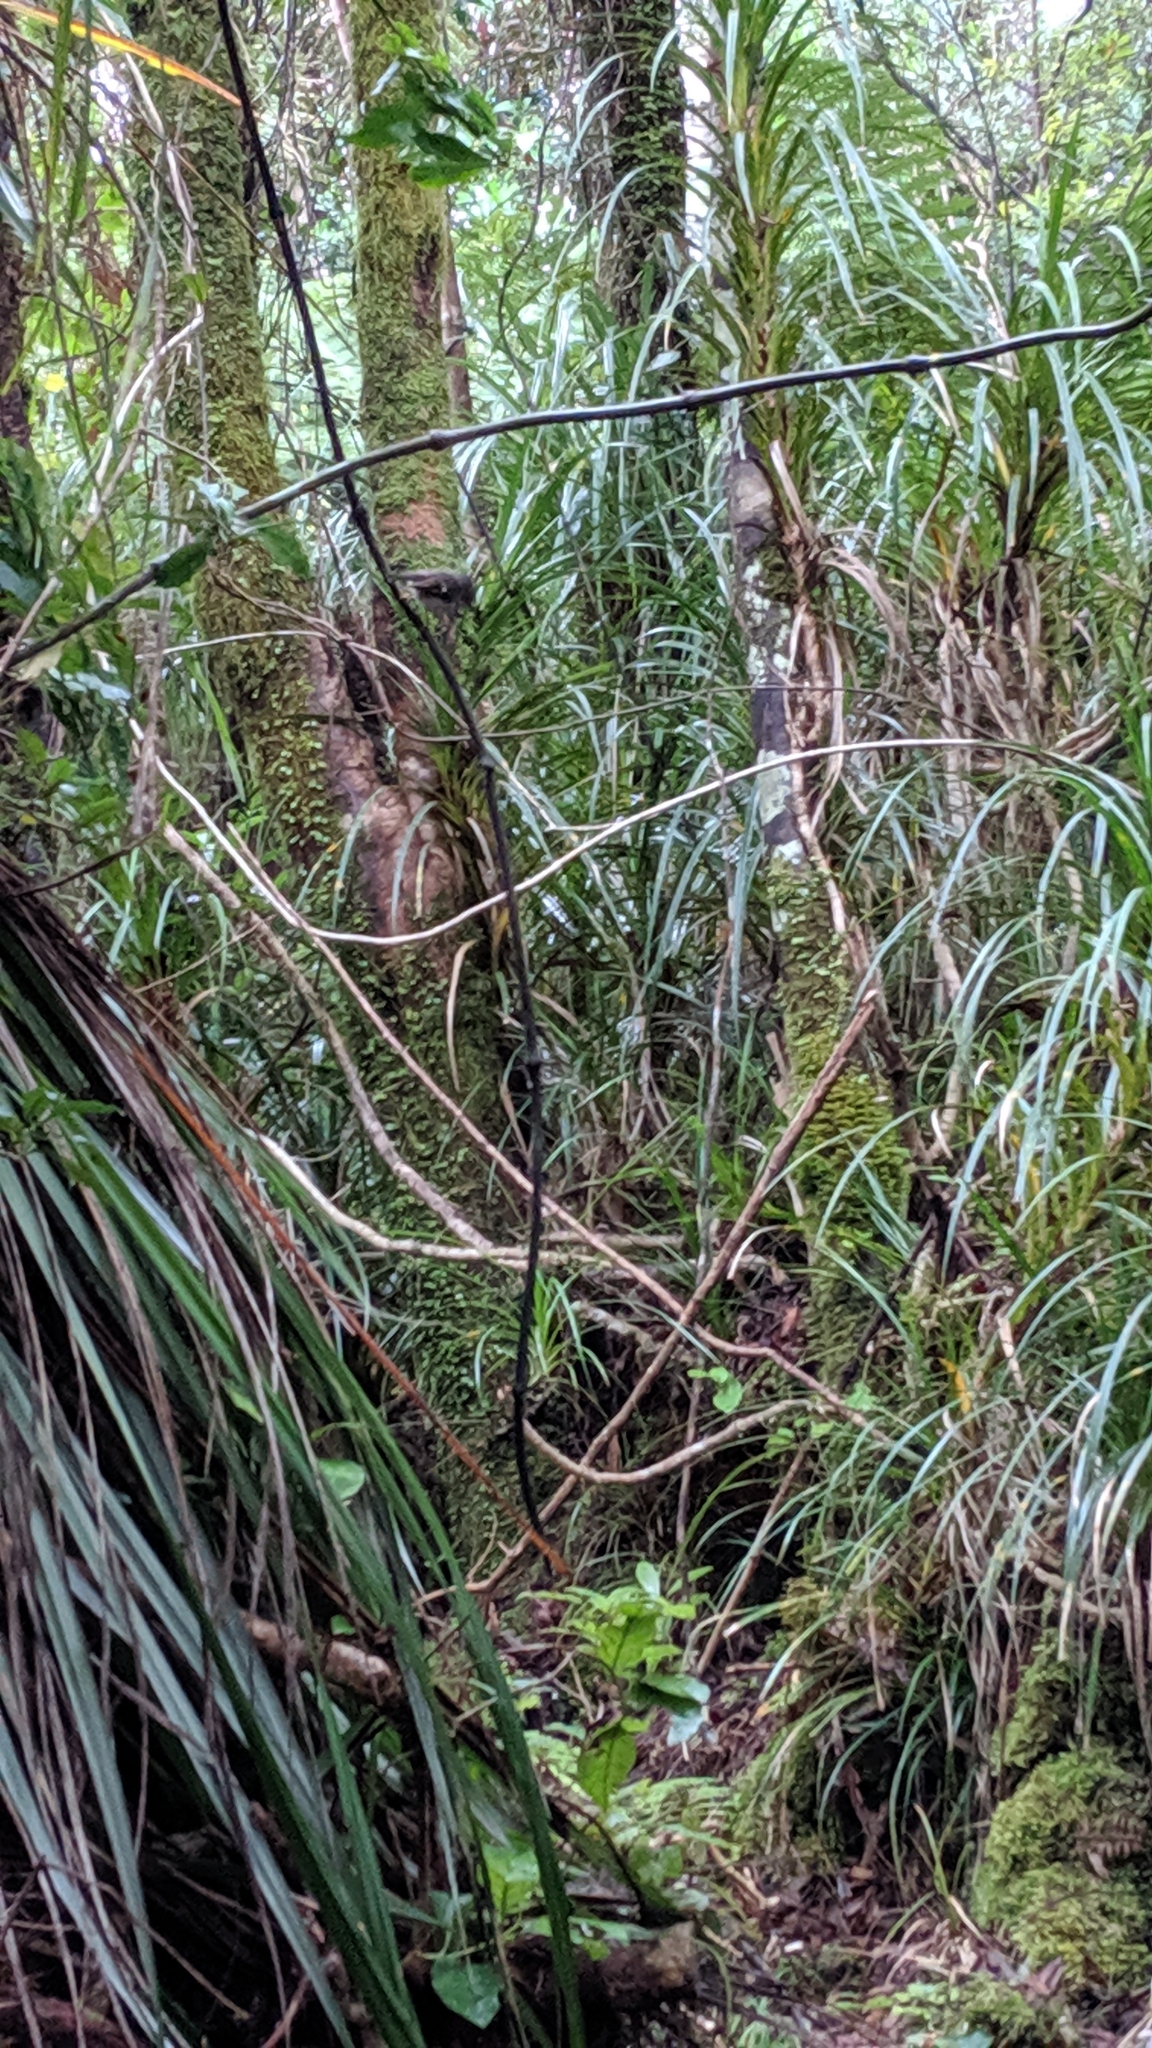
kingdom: Animalia
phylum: Chordata
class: Aves
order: Passeriformes
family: Petroicidae
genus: Petroica
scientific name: Petroica macrocephala
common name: Tomtit
